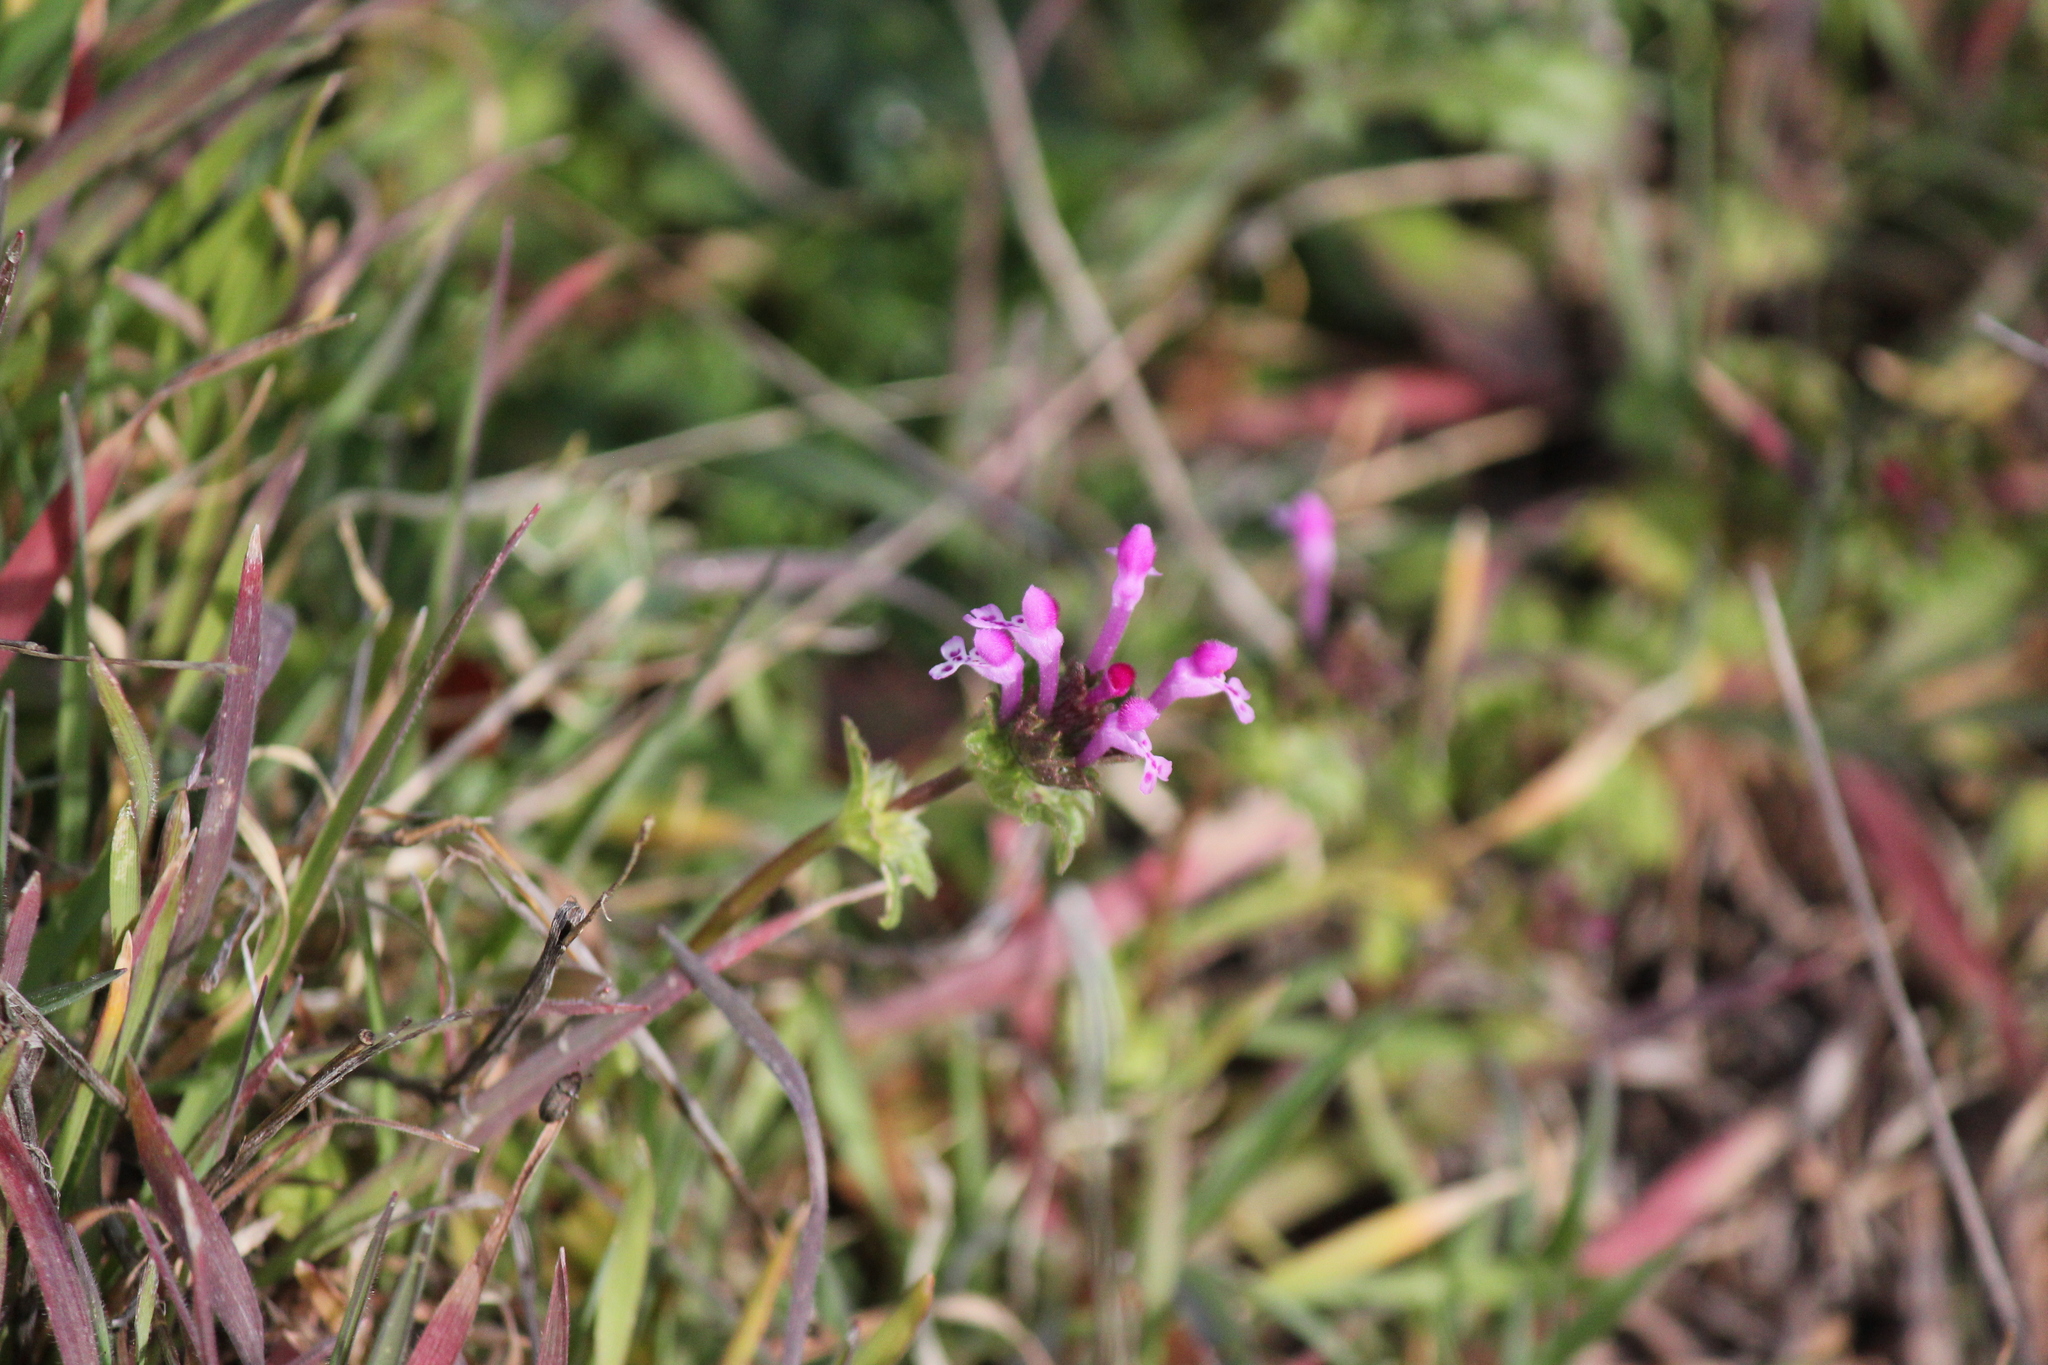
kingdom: Plantae
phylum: Tracheophyta
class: Magnoliopsida
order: Lamiales
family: Lamiaceae
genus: Lamium
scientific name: Lamium amplexicaule
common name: Henbit dead-nettle
